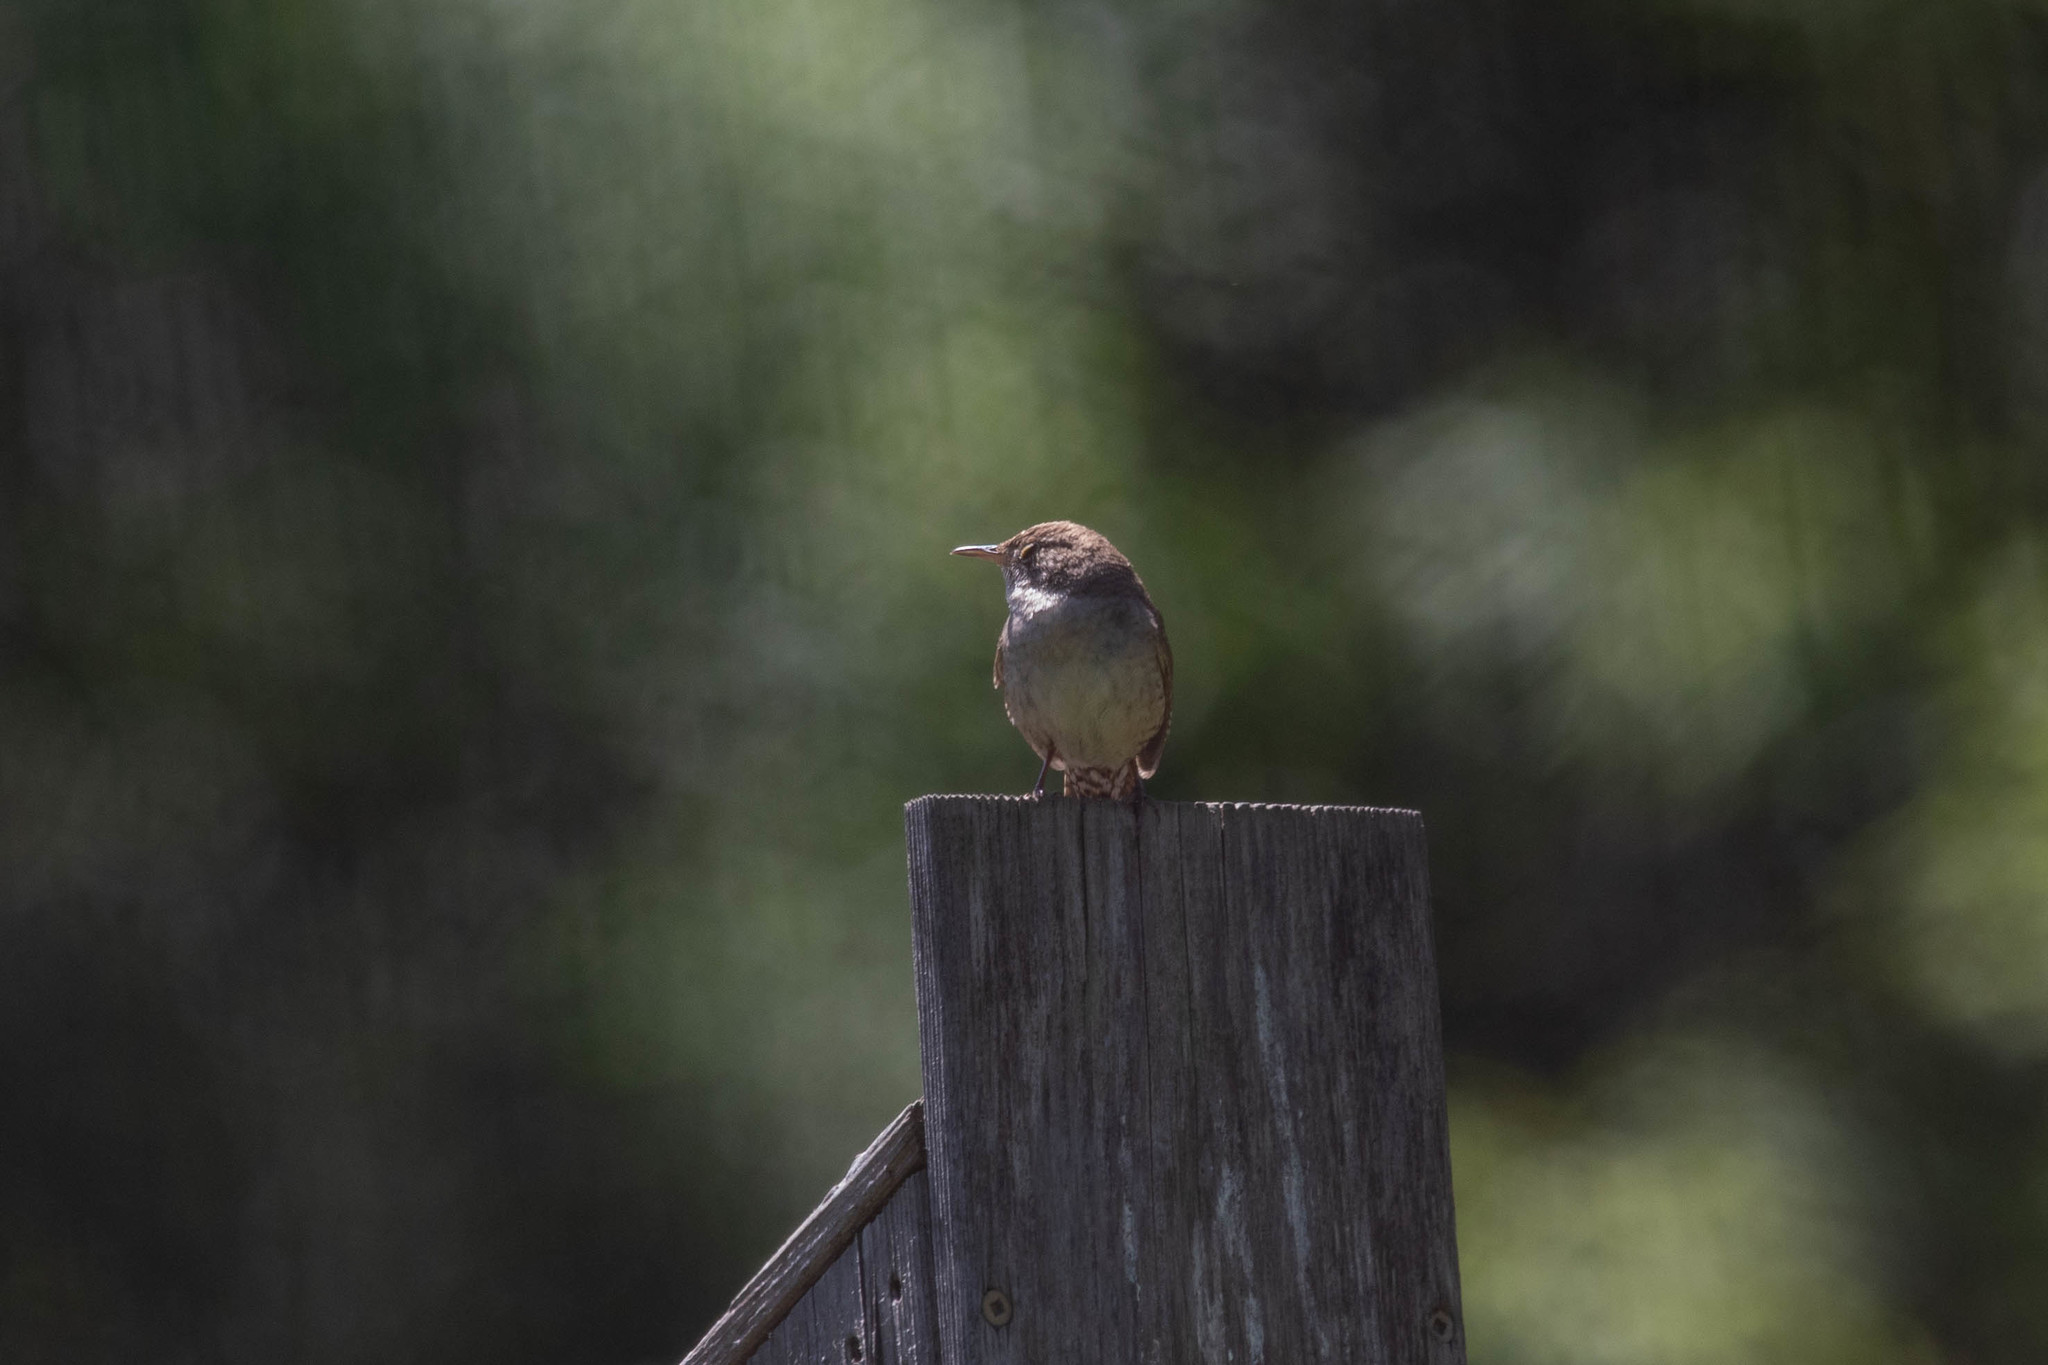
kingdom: Animalia
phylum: Chordata
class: Aves
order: Passeriformes
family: Troglodytidae
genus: Troglodytes
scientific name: Troglodytes aedon
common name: House wren
